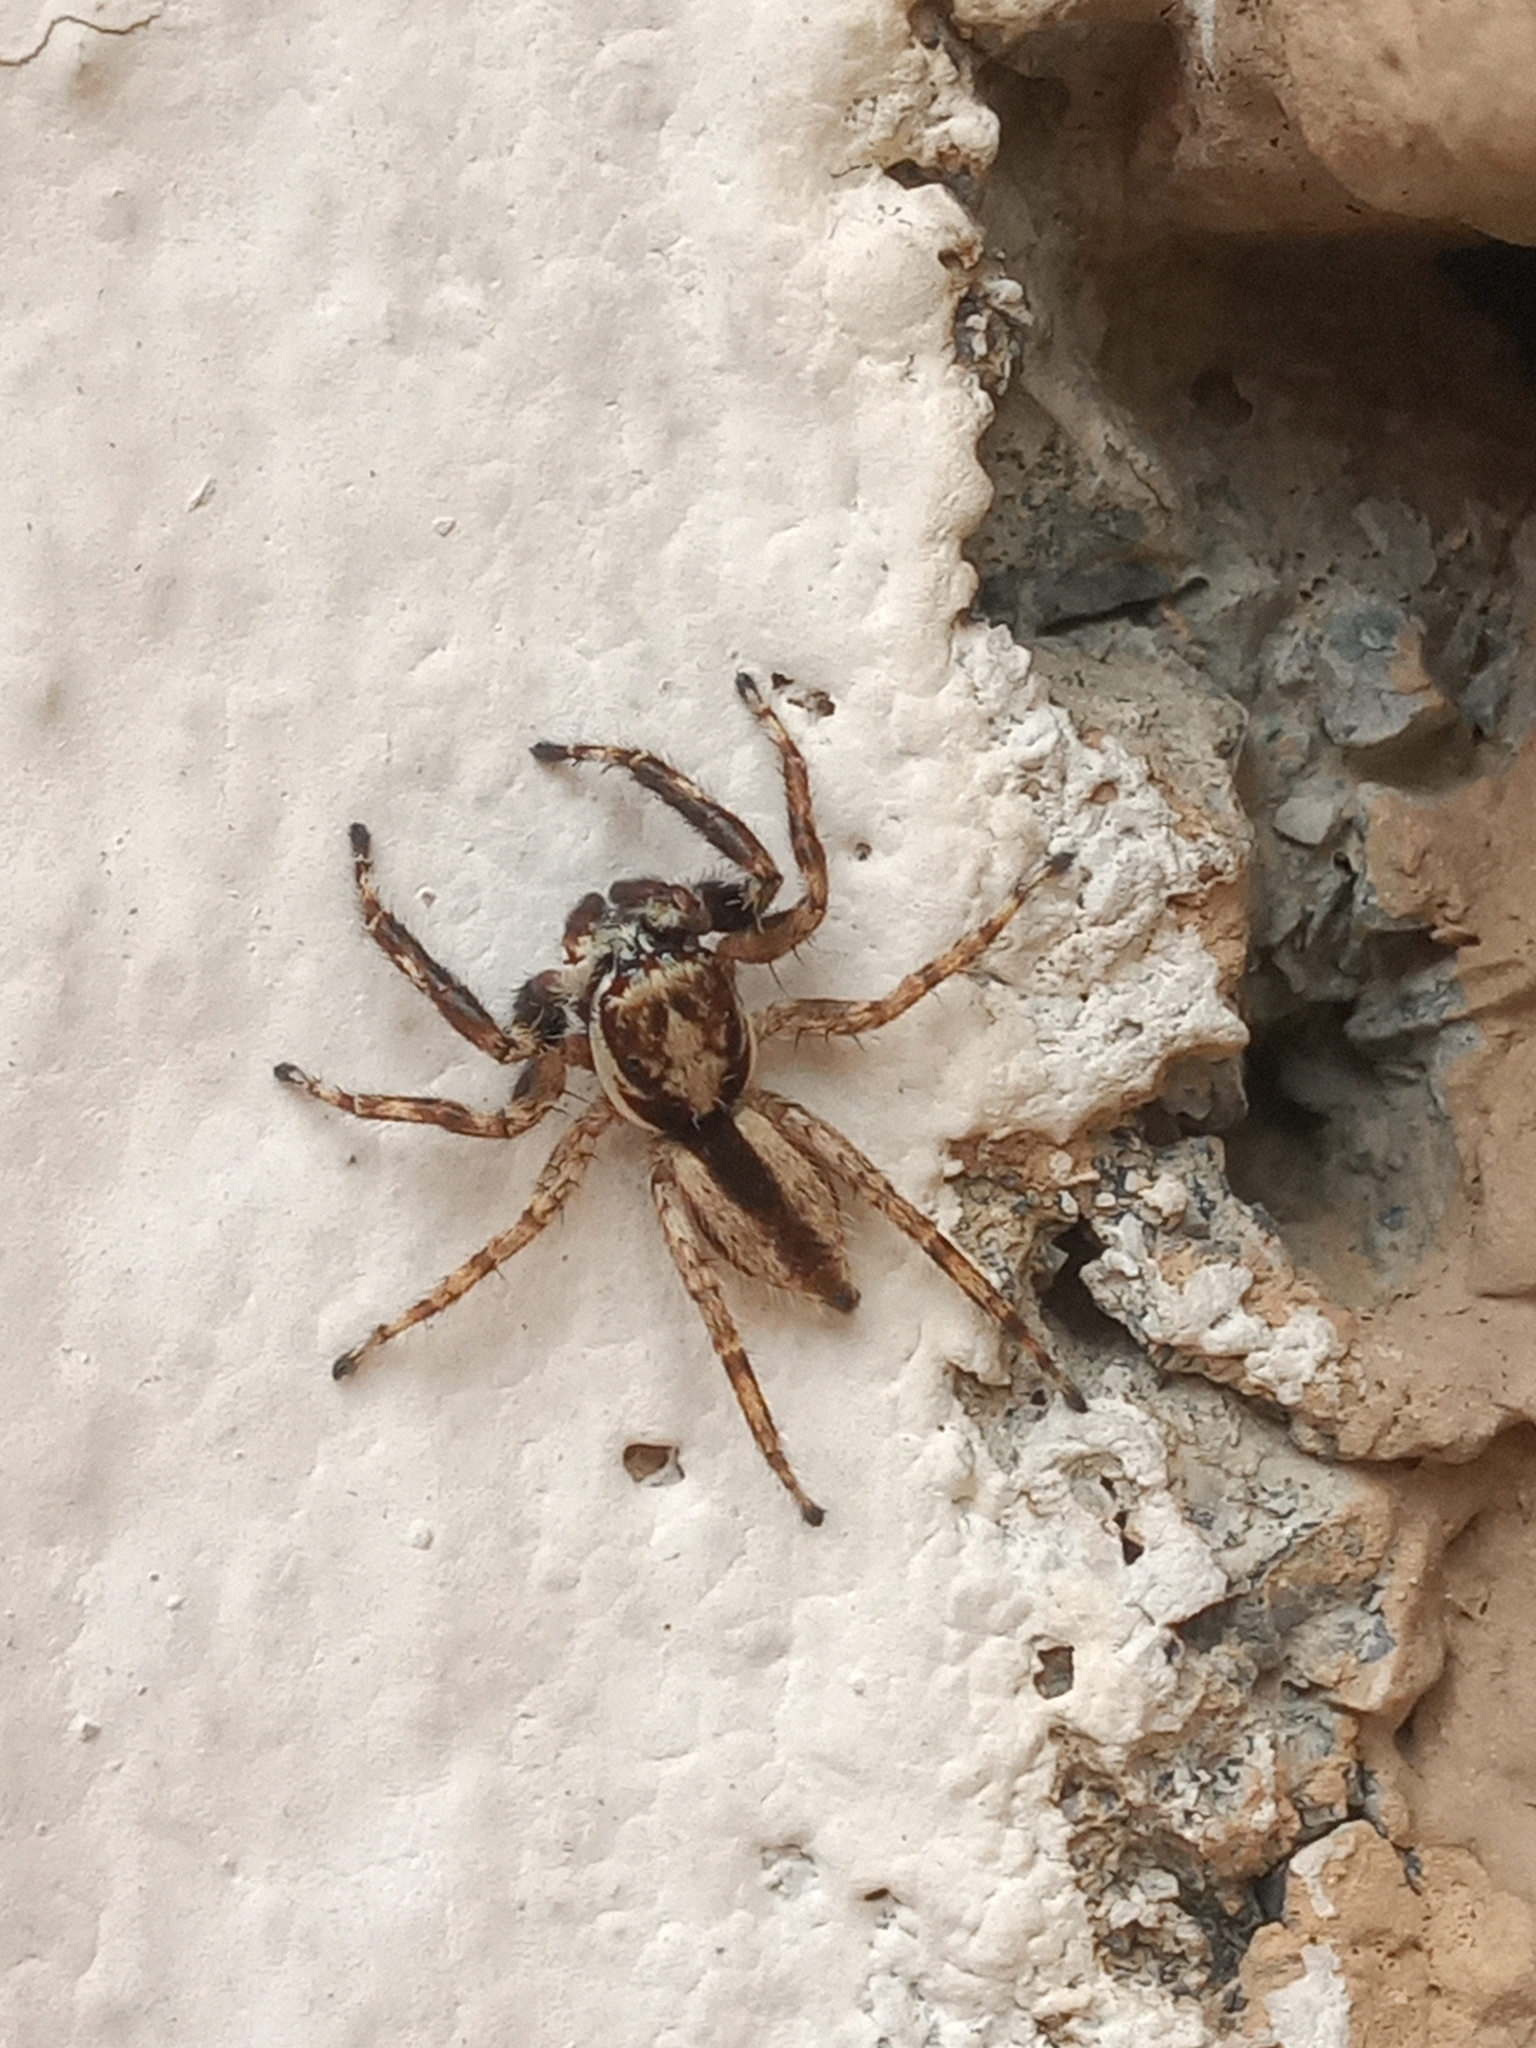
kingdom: Animalia
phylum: Arthropoda
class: Arachnida
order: Araneae
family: Salticidae
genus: Menemerus
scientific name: Menemerus bivittatus
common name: Gray wall jumper
